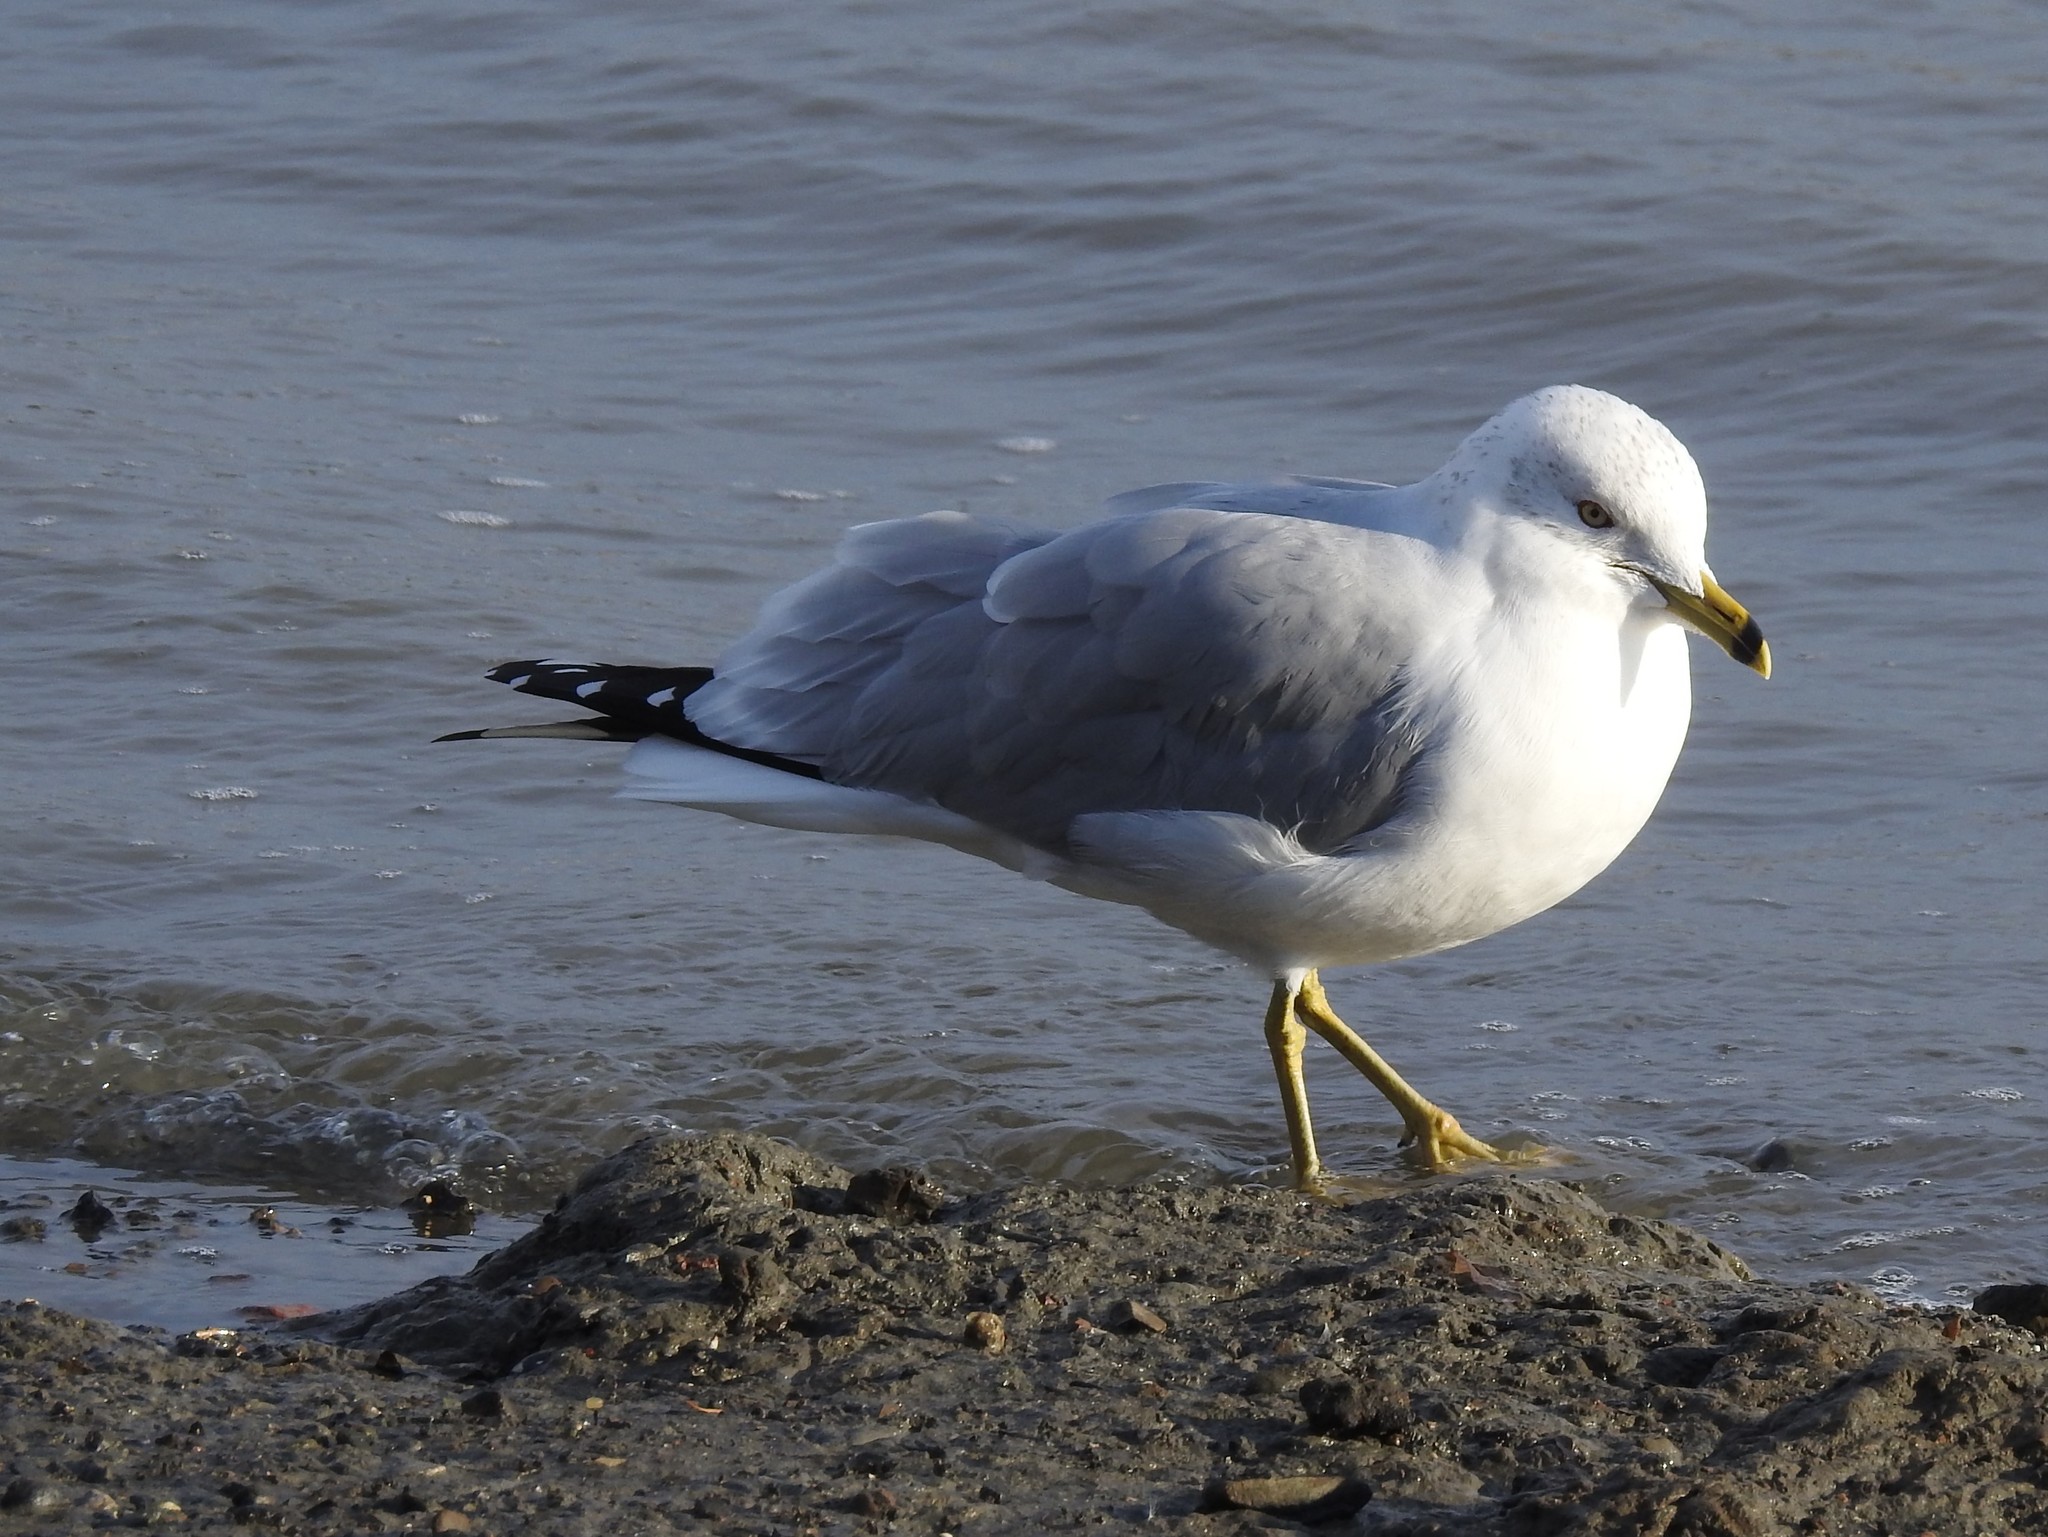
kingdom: Animalia
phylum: Chordata
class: Aves
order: Charadriiformes
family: Laridae
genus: Larus
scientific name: Larus delawarensis
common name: Ring-billed gull
